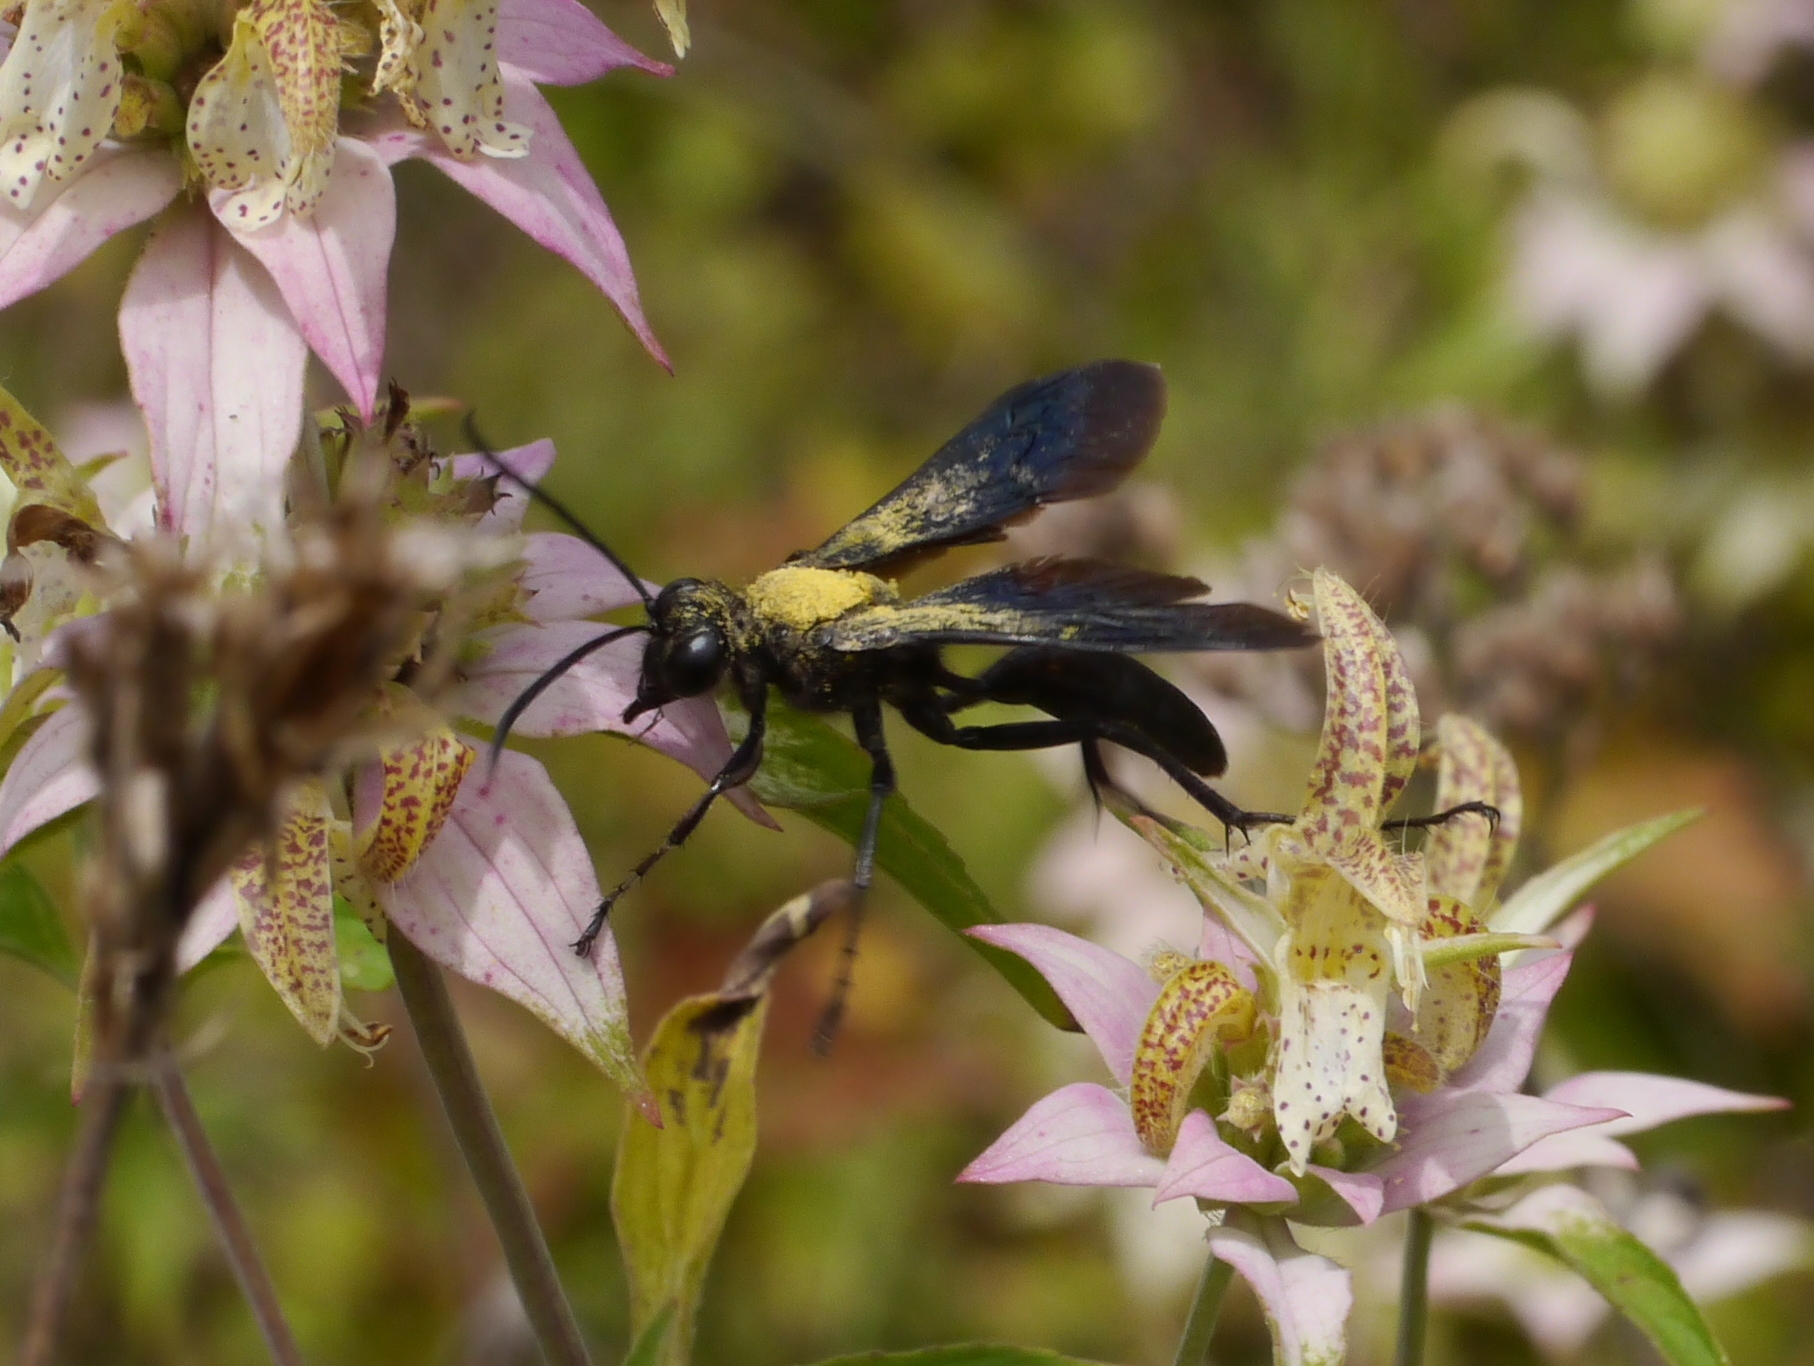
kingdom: Animalia
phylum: Arthropoda
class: Insecta
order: Hymenoptera
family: Sphecidae
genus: Sphex
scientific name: Sphex pensylvanicus
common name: Great black digger wasp
